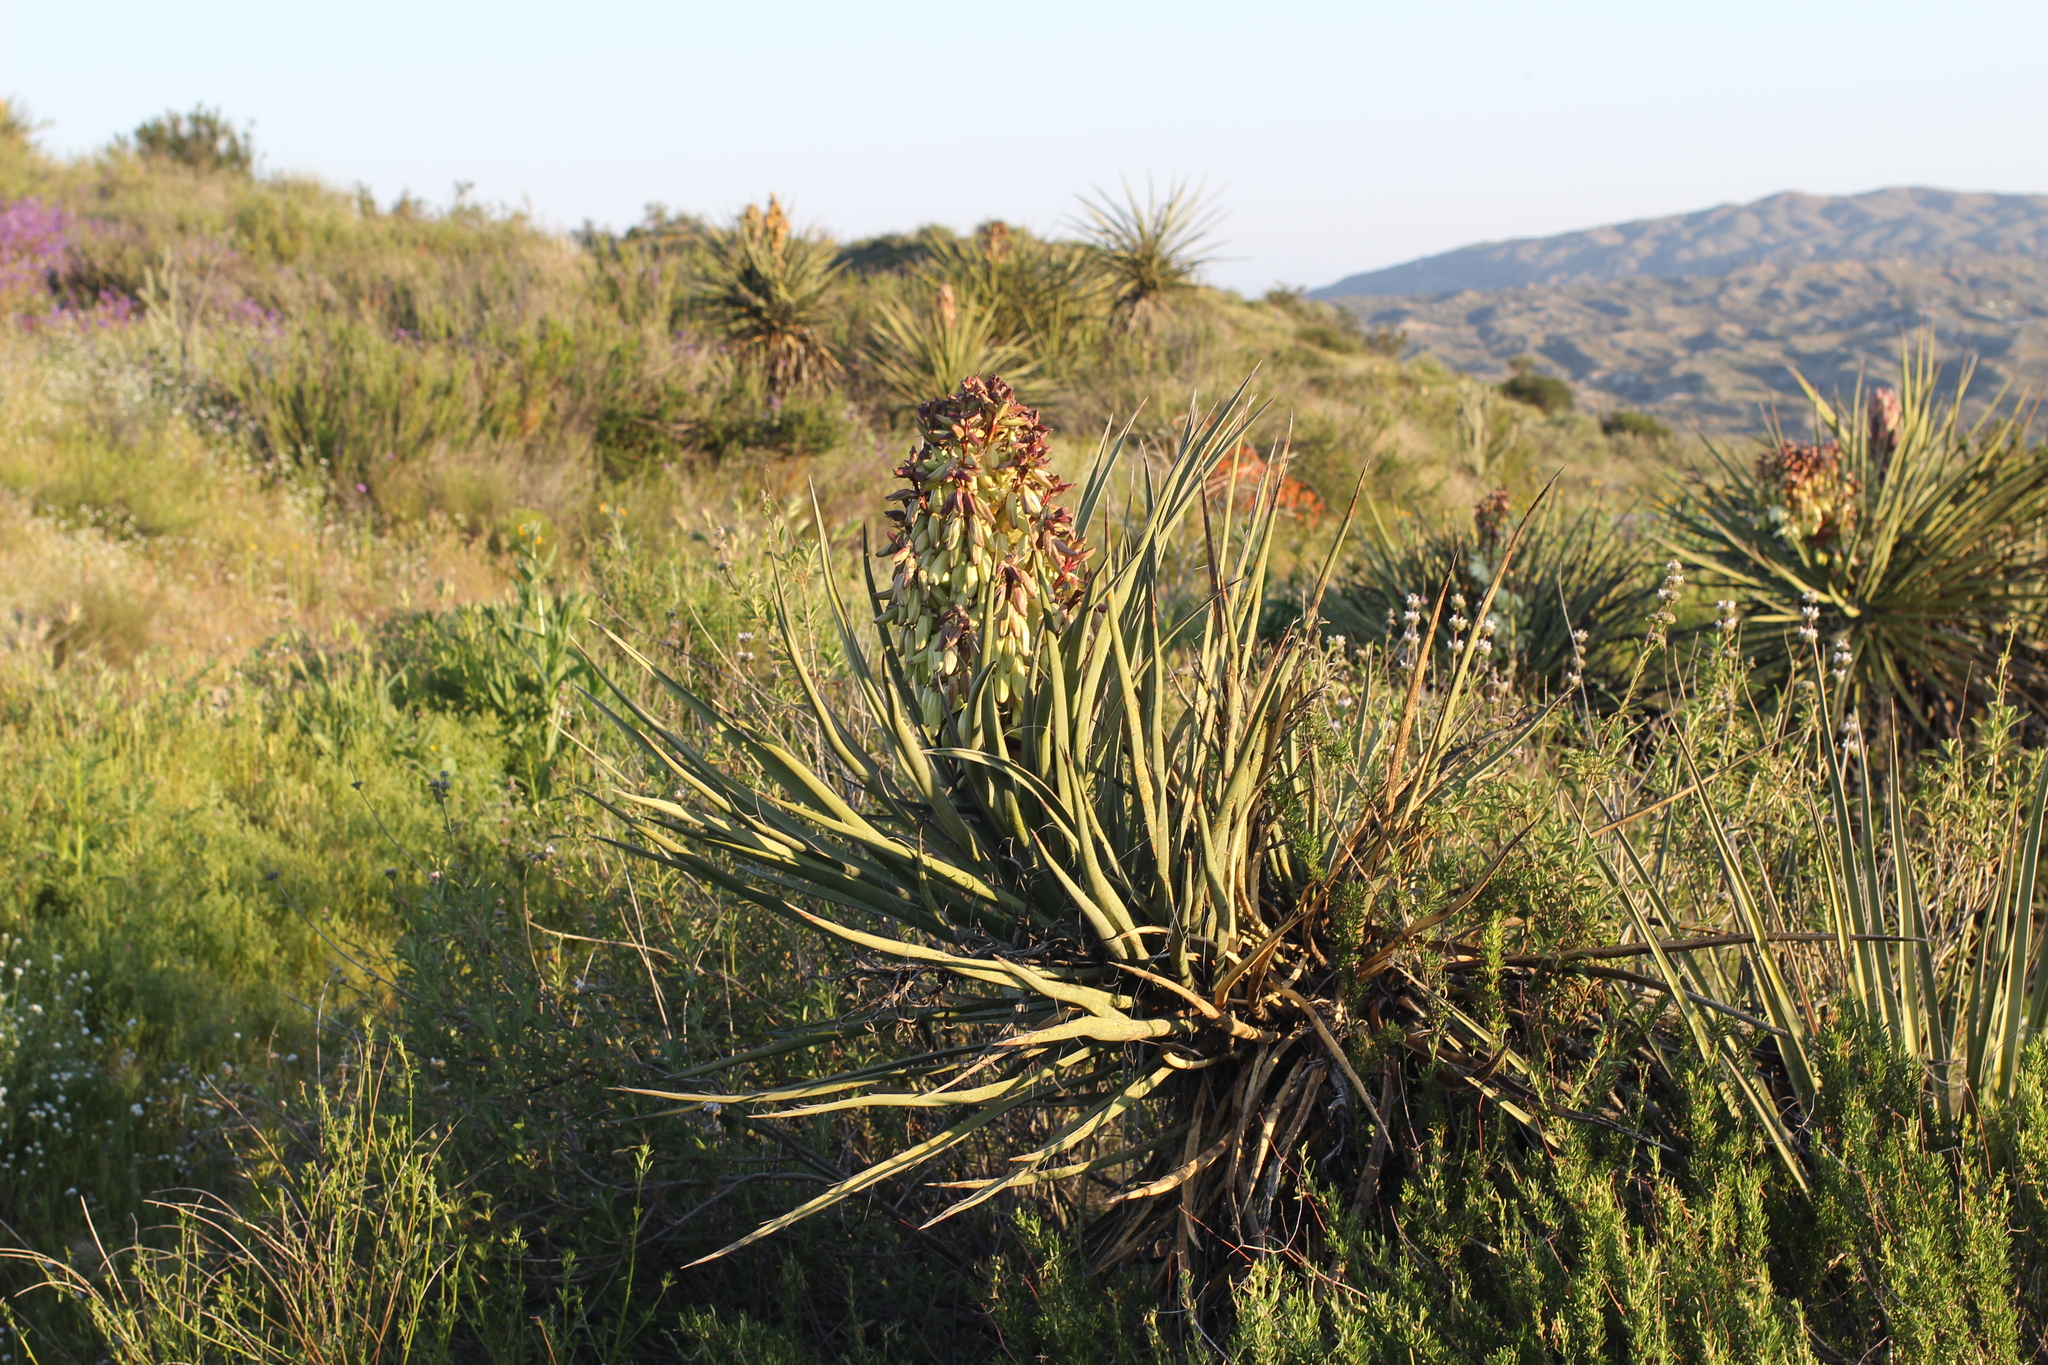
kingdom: Plantae
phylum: Tracheophyta
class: Liliopsida
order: Asparagales
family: Asparagaceae
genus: Yucca
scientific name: Yucca schidigera
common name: Mojave yucca
